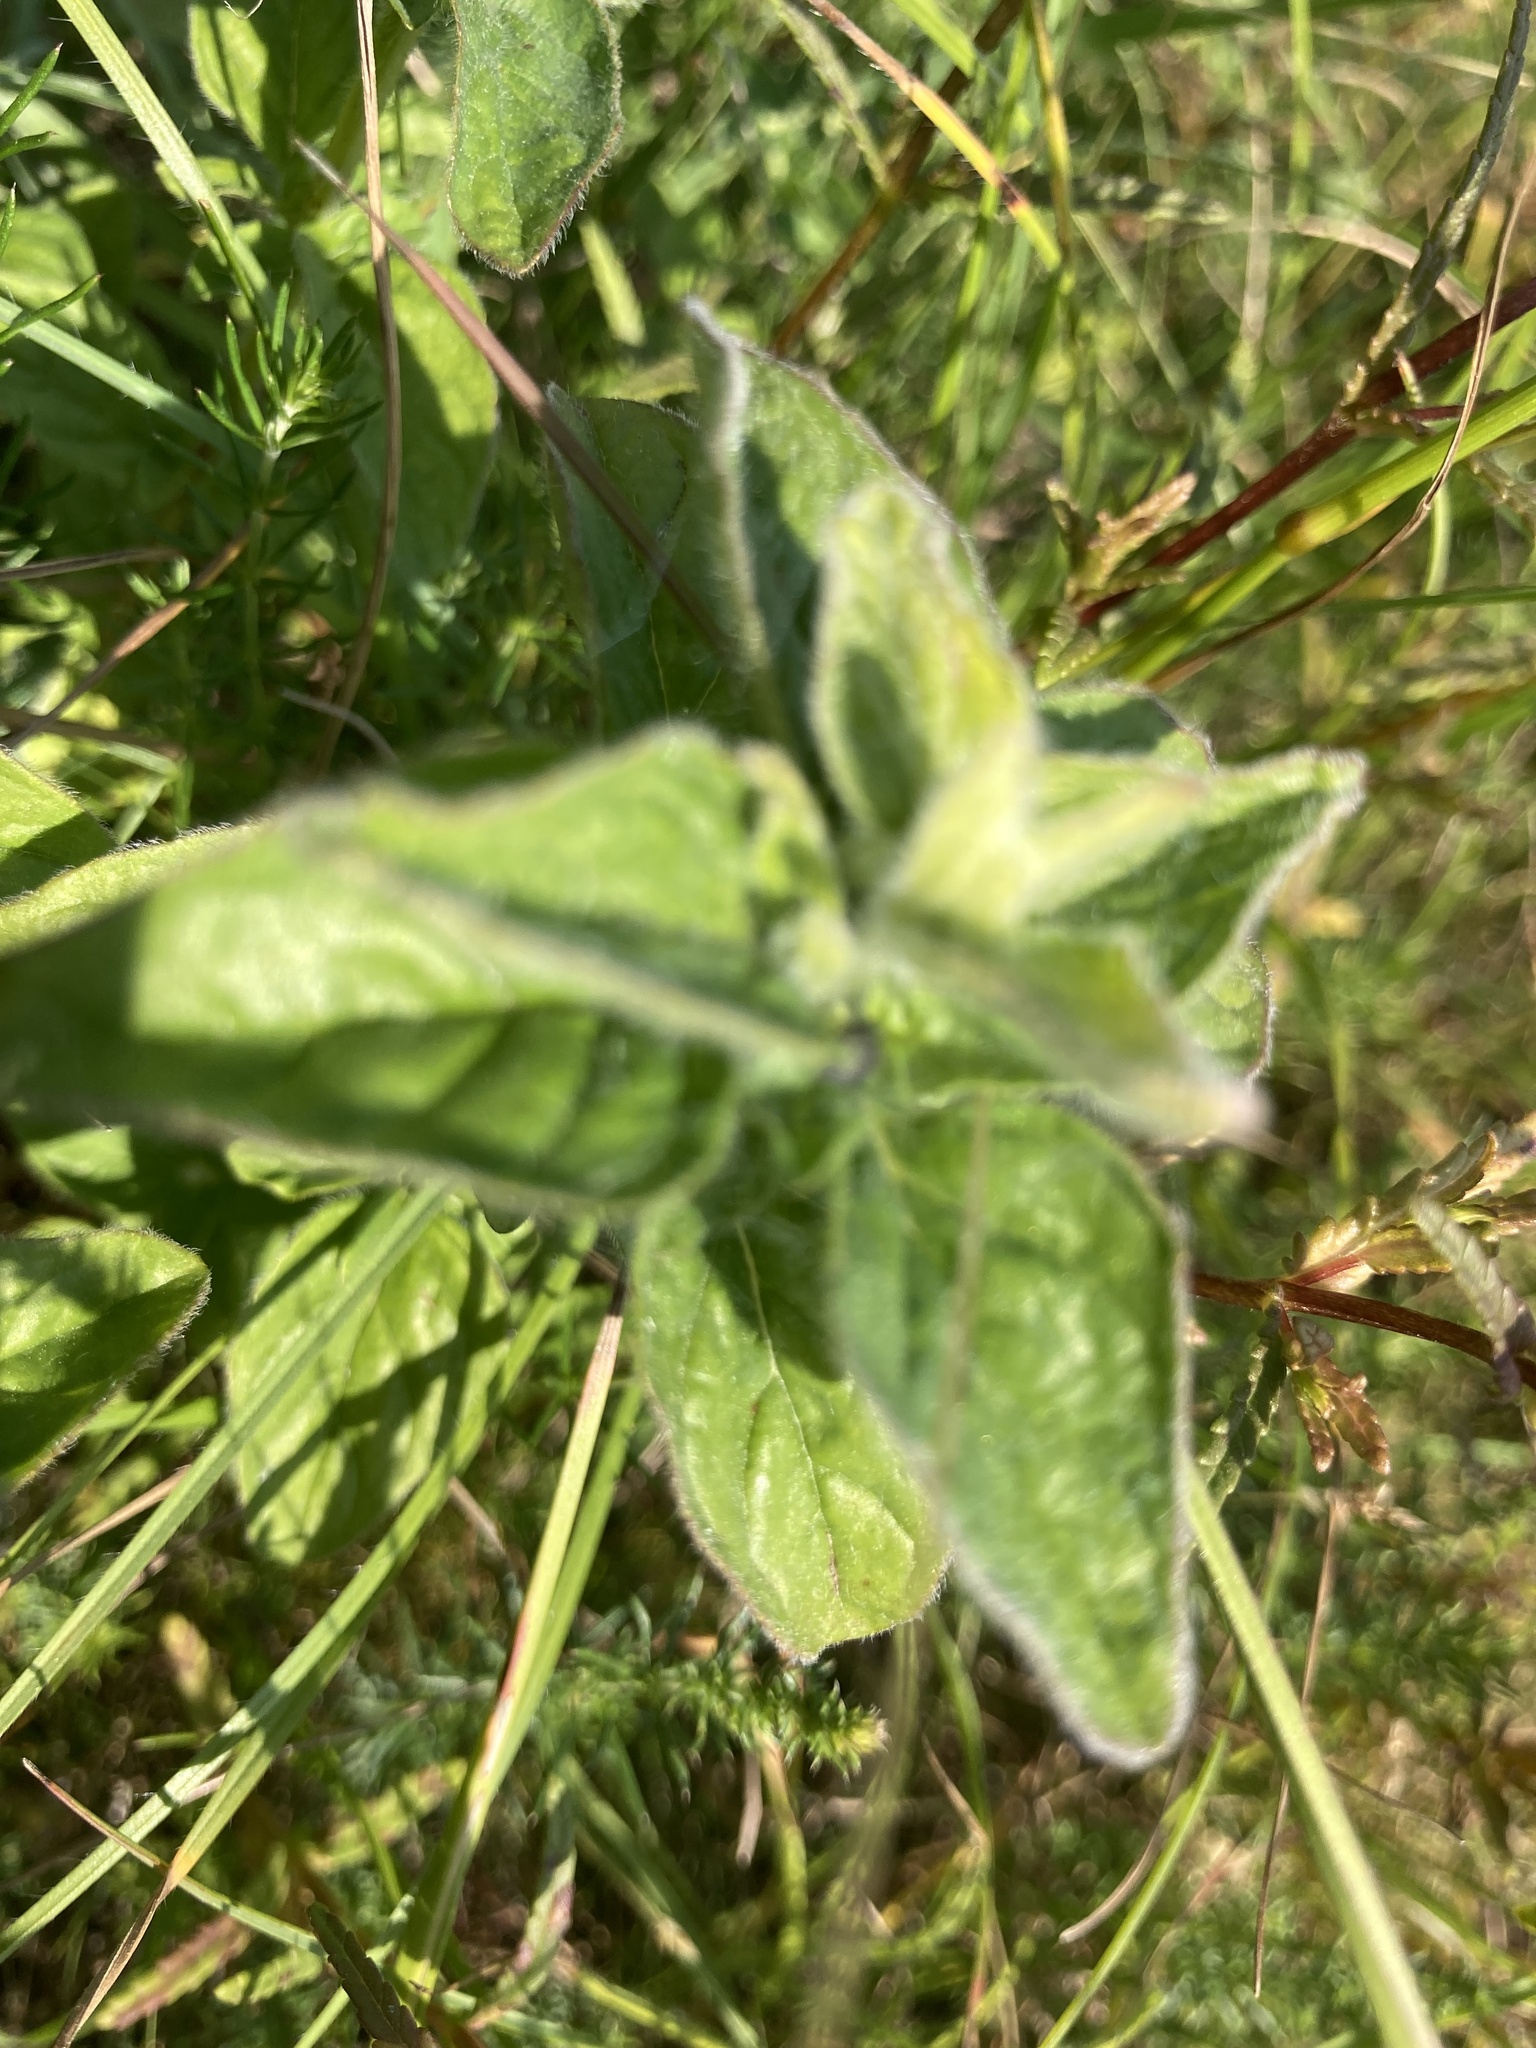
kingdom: Plantae
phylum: Tracheophyta
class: Magnoliopsida
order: Lamiales
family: Lamiaceae
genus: Origanum
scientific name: Origanum vulgare
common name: Wild marjoram
